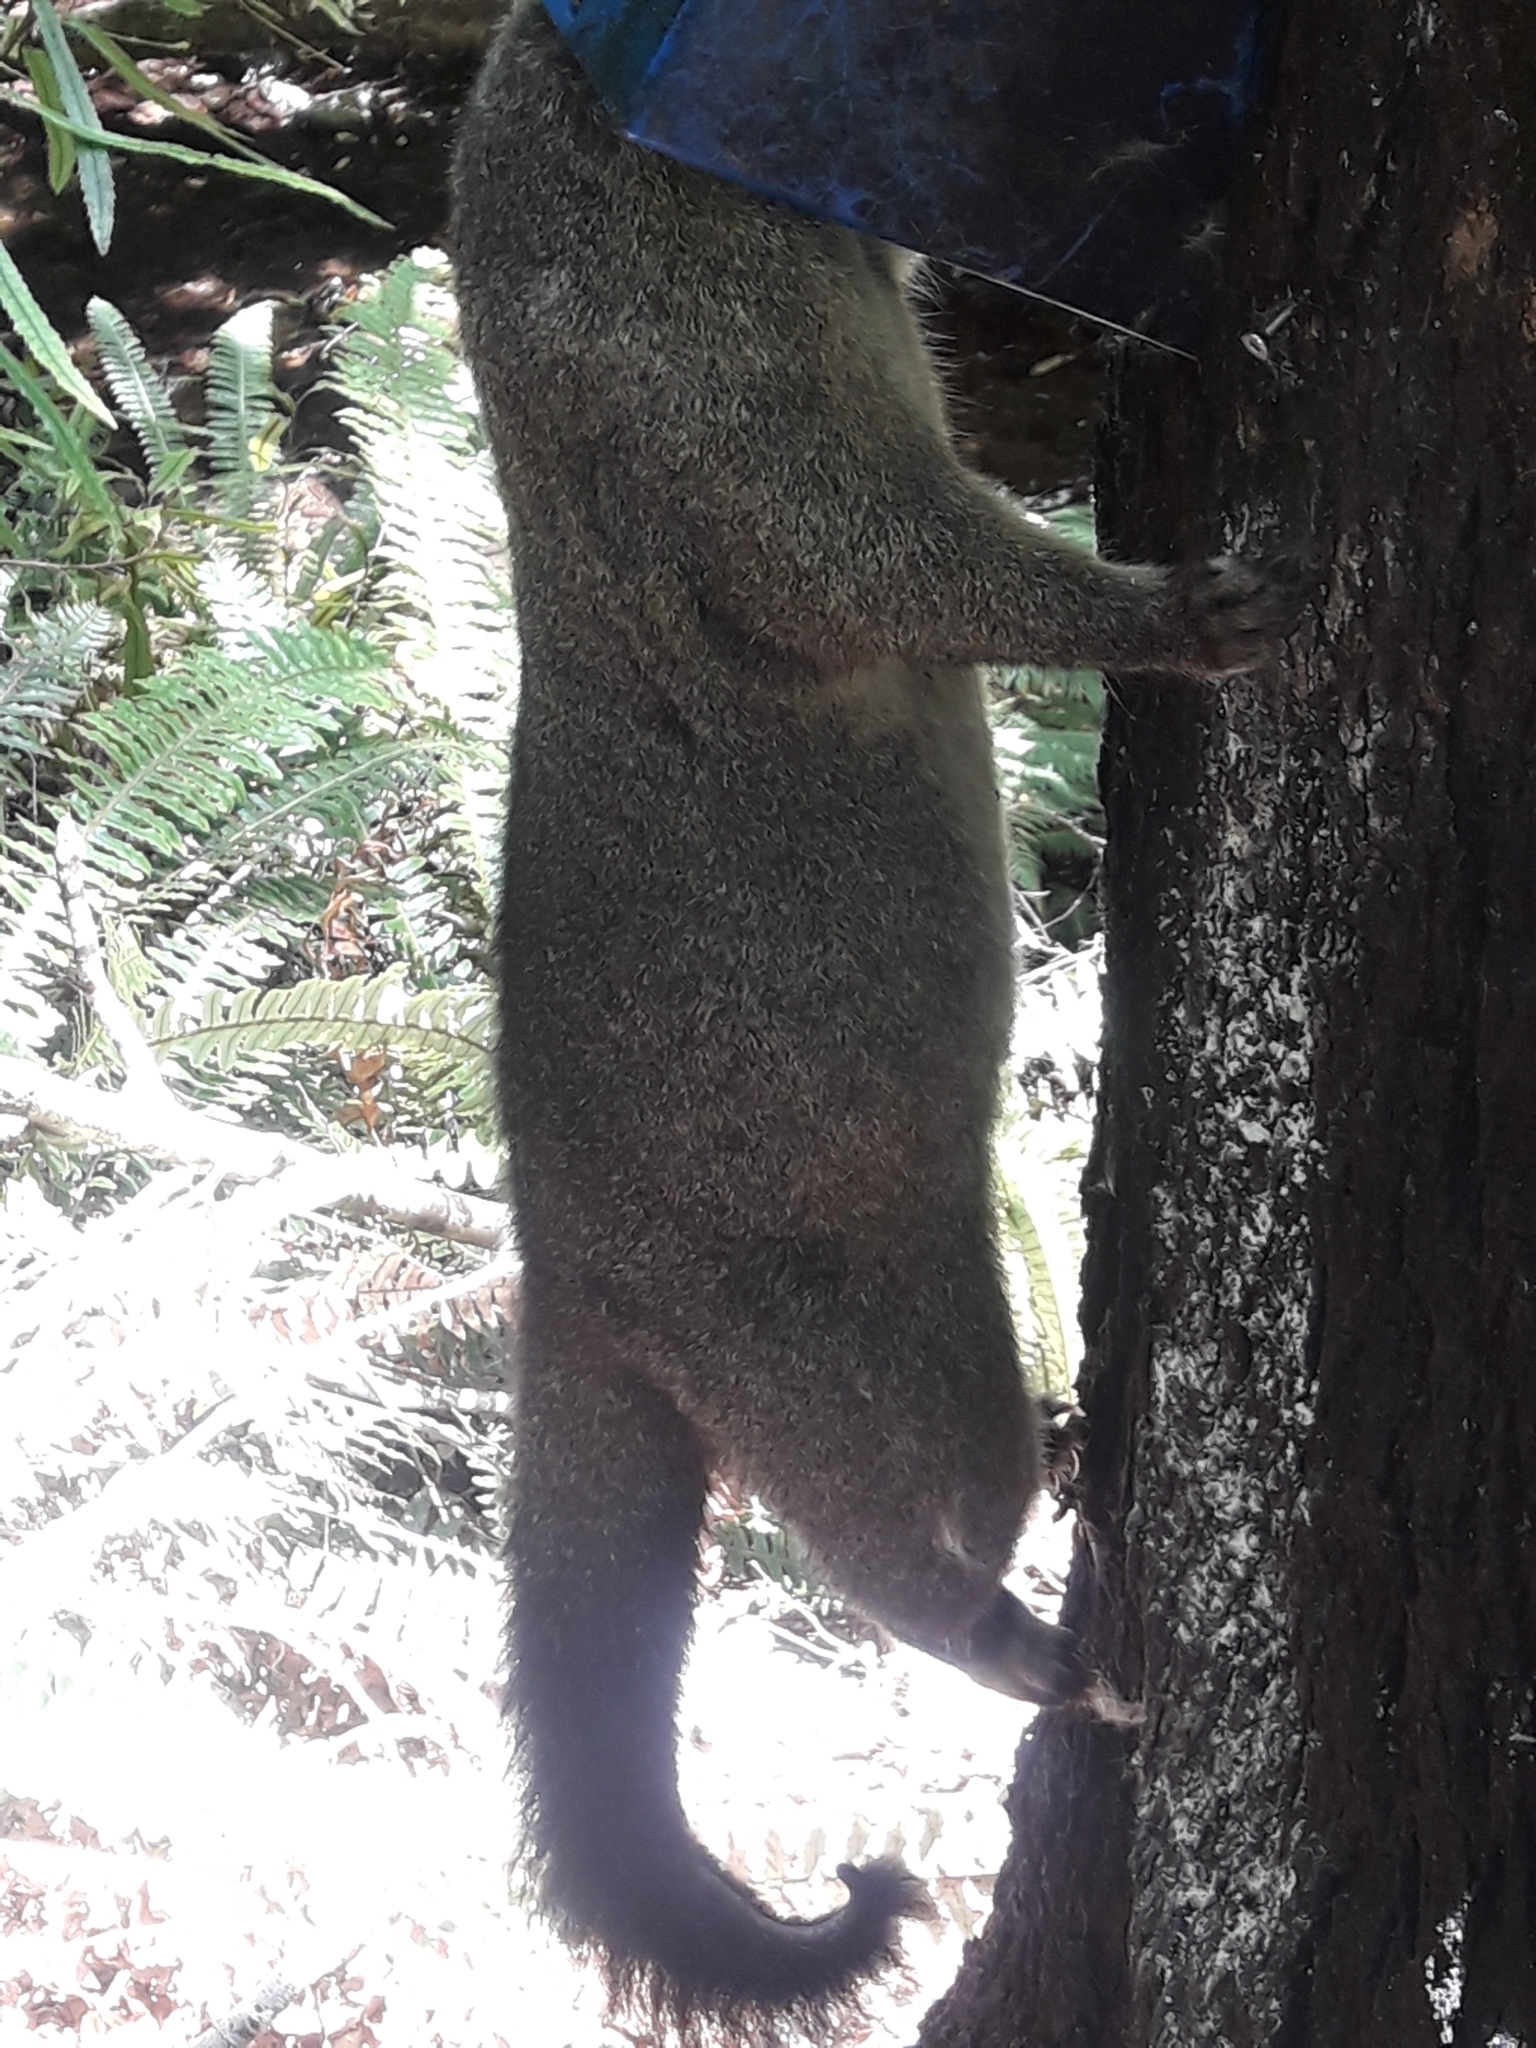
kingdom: Animalia
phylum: Chordata
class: Mammalia
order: Diprotodontia
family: Phalangeridae
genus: Trichosurus
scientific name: Trichosurus vulpecula
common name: Common brushtail
